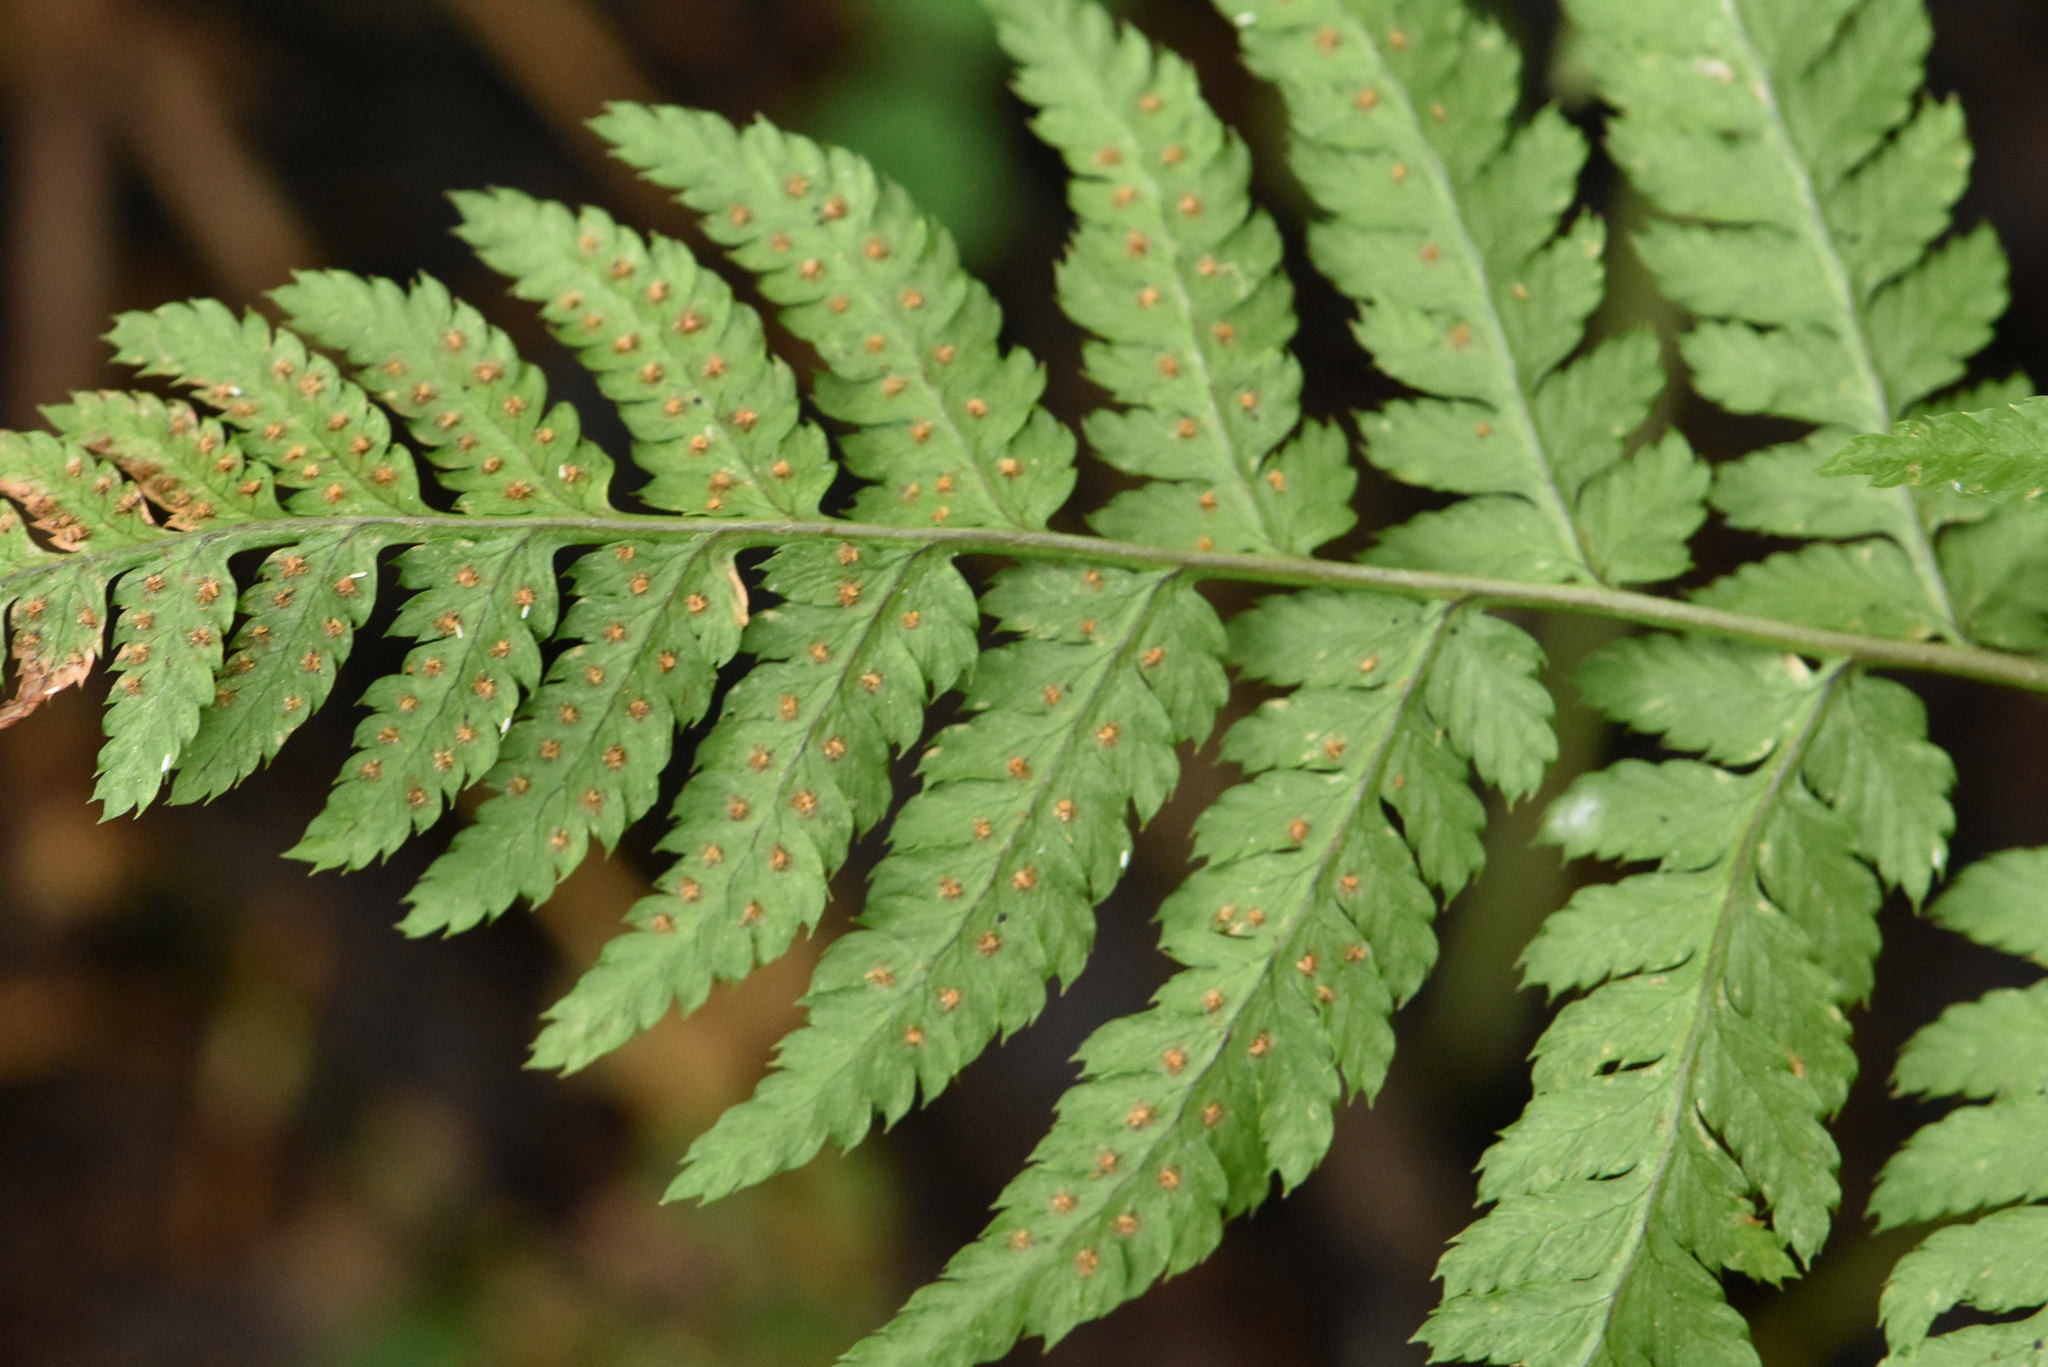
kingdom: Plantae
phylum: Tracheophyta
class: Polypodiopsida
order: Polypodiales
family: Dryopteridaceae
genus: Dryopteris
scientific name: Dryopteris carthusiana
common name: Narrow buckler-fern
